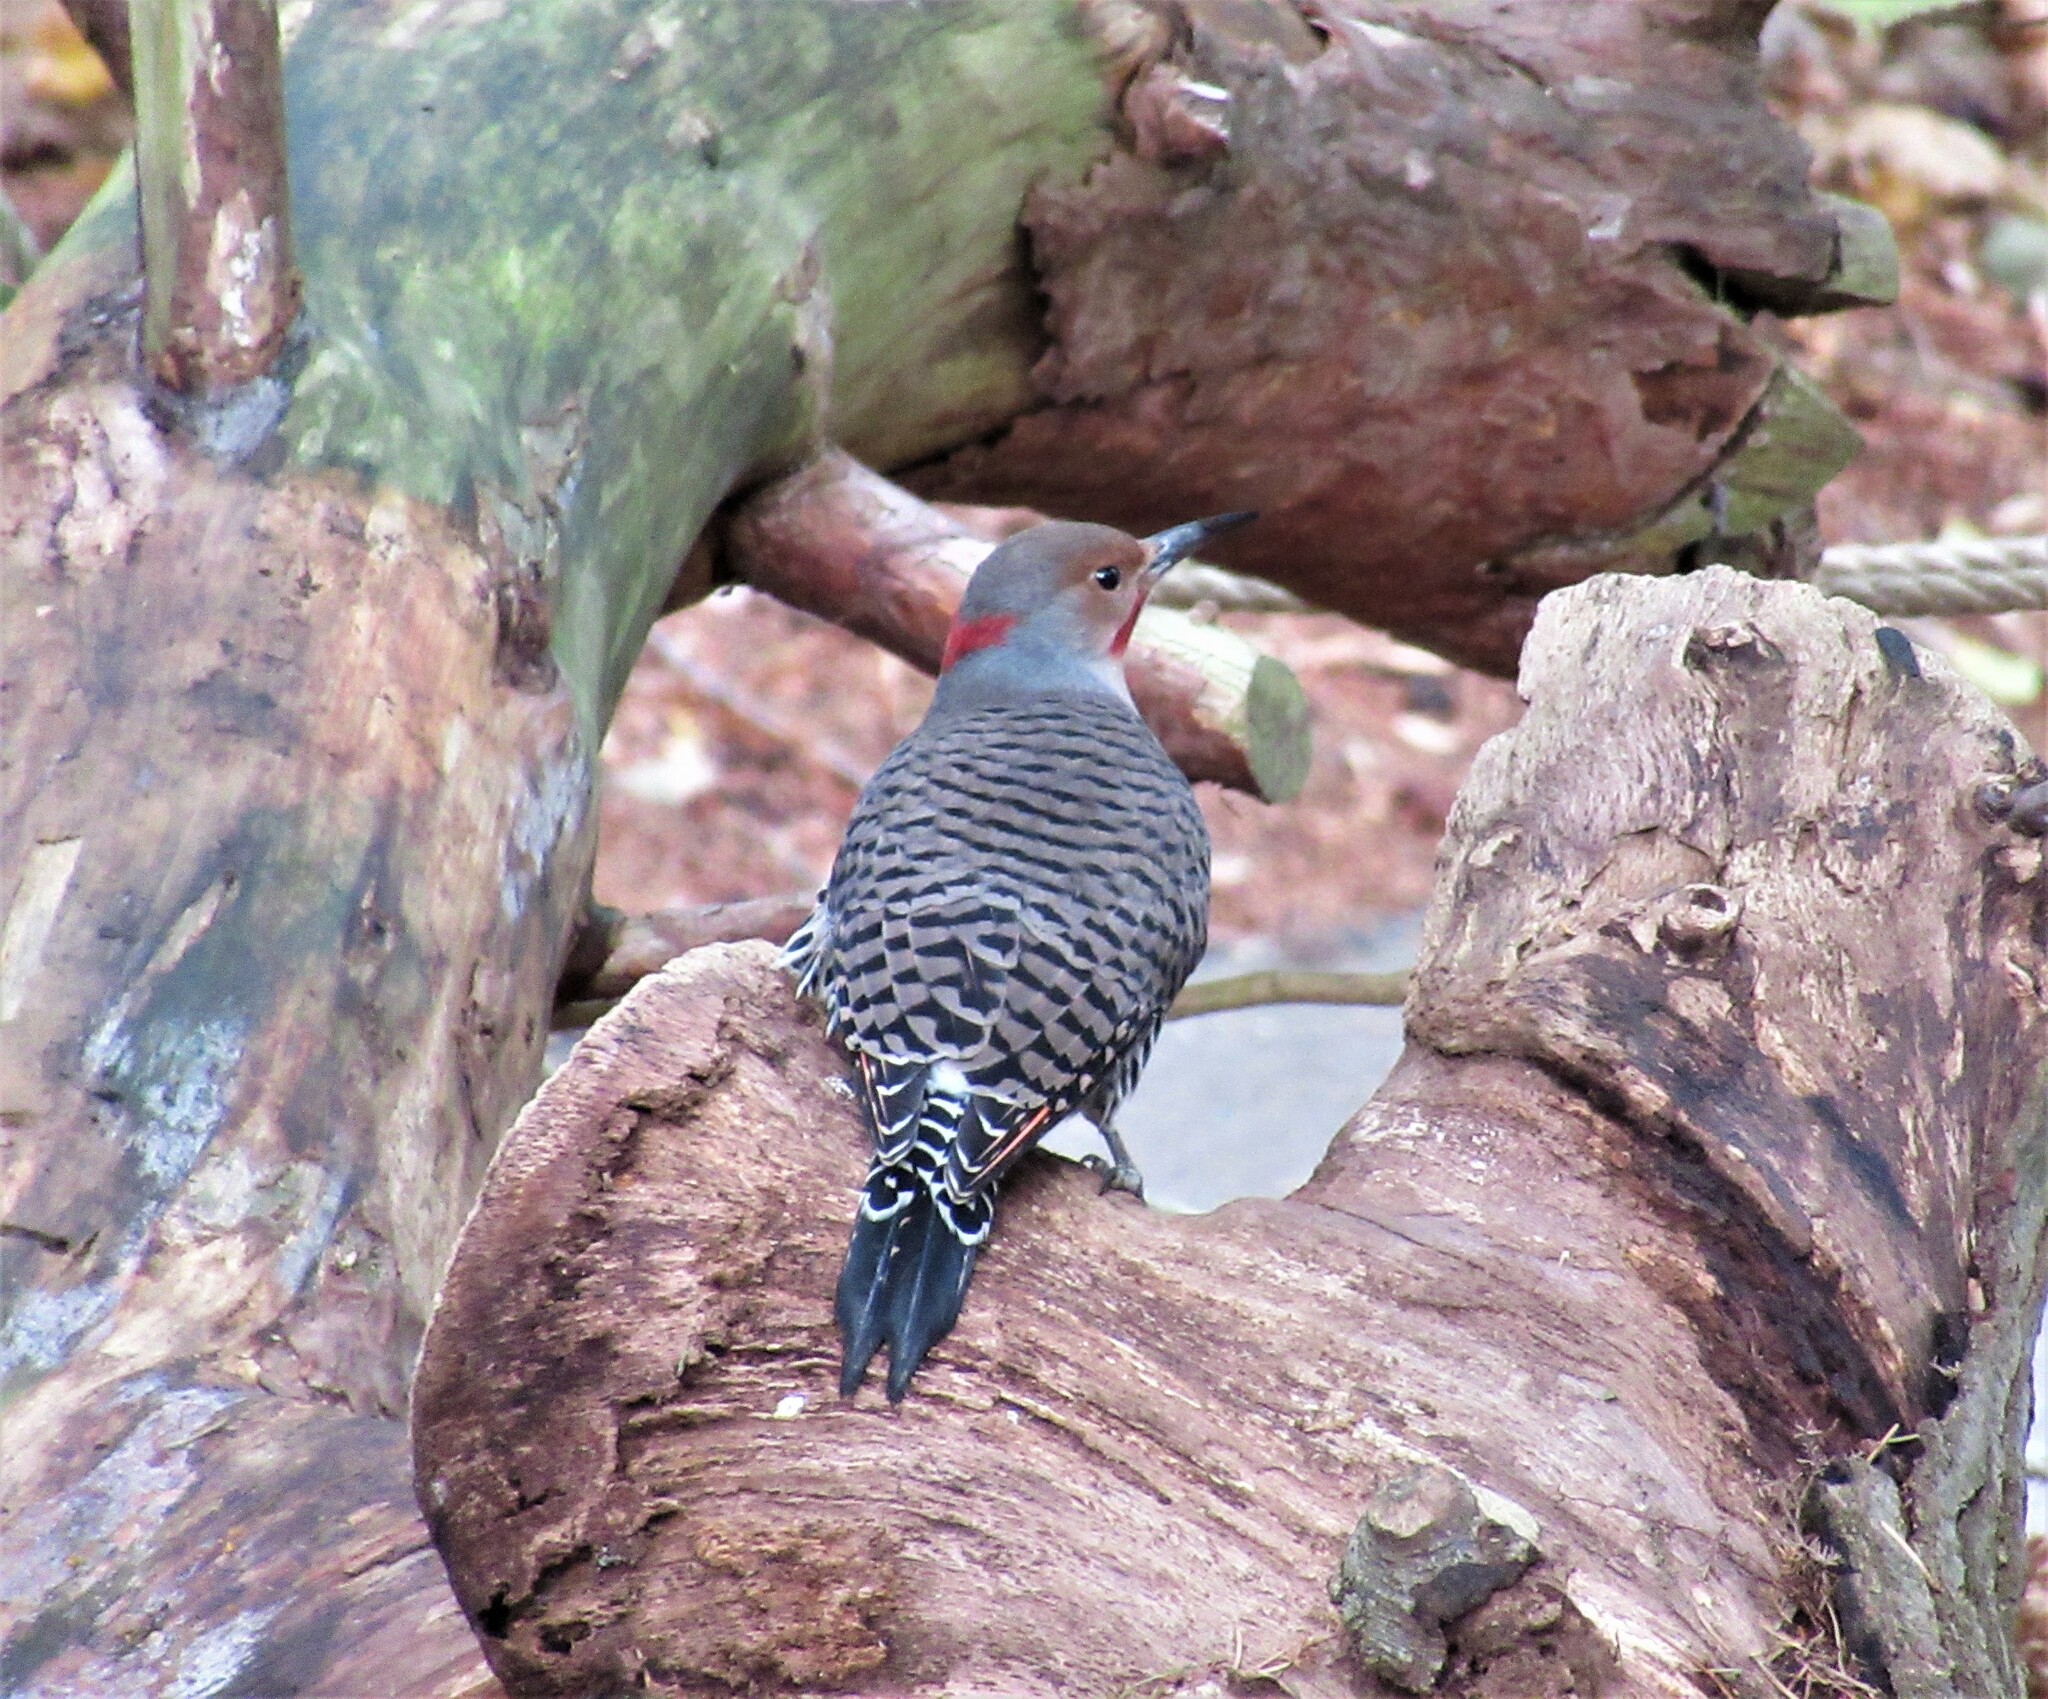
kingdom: Animalia
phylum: Chordata
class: Aves
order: Piciformes
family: Picidae
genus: Colaptes
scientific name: Colaptes
